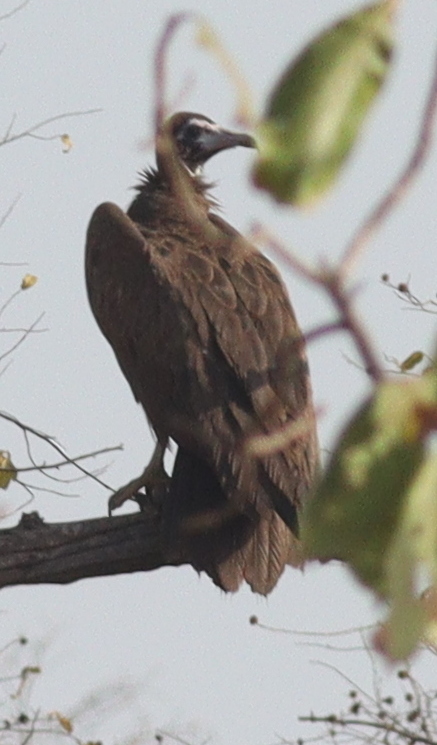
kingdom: Animalia
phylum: Chordata
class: Aves
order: Accipitriformes
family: Accipitridae
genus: Necrosyrtes
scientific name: Necrosyrtes monachus
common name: Hooded vulture
